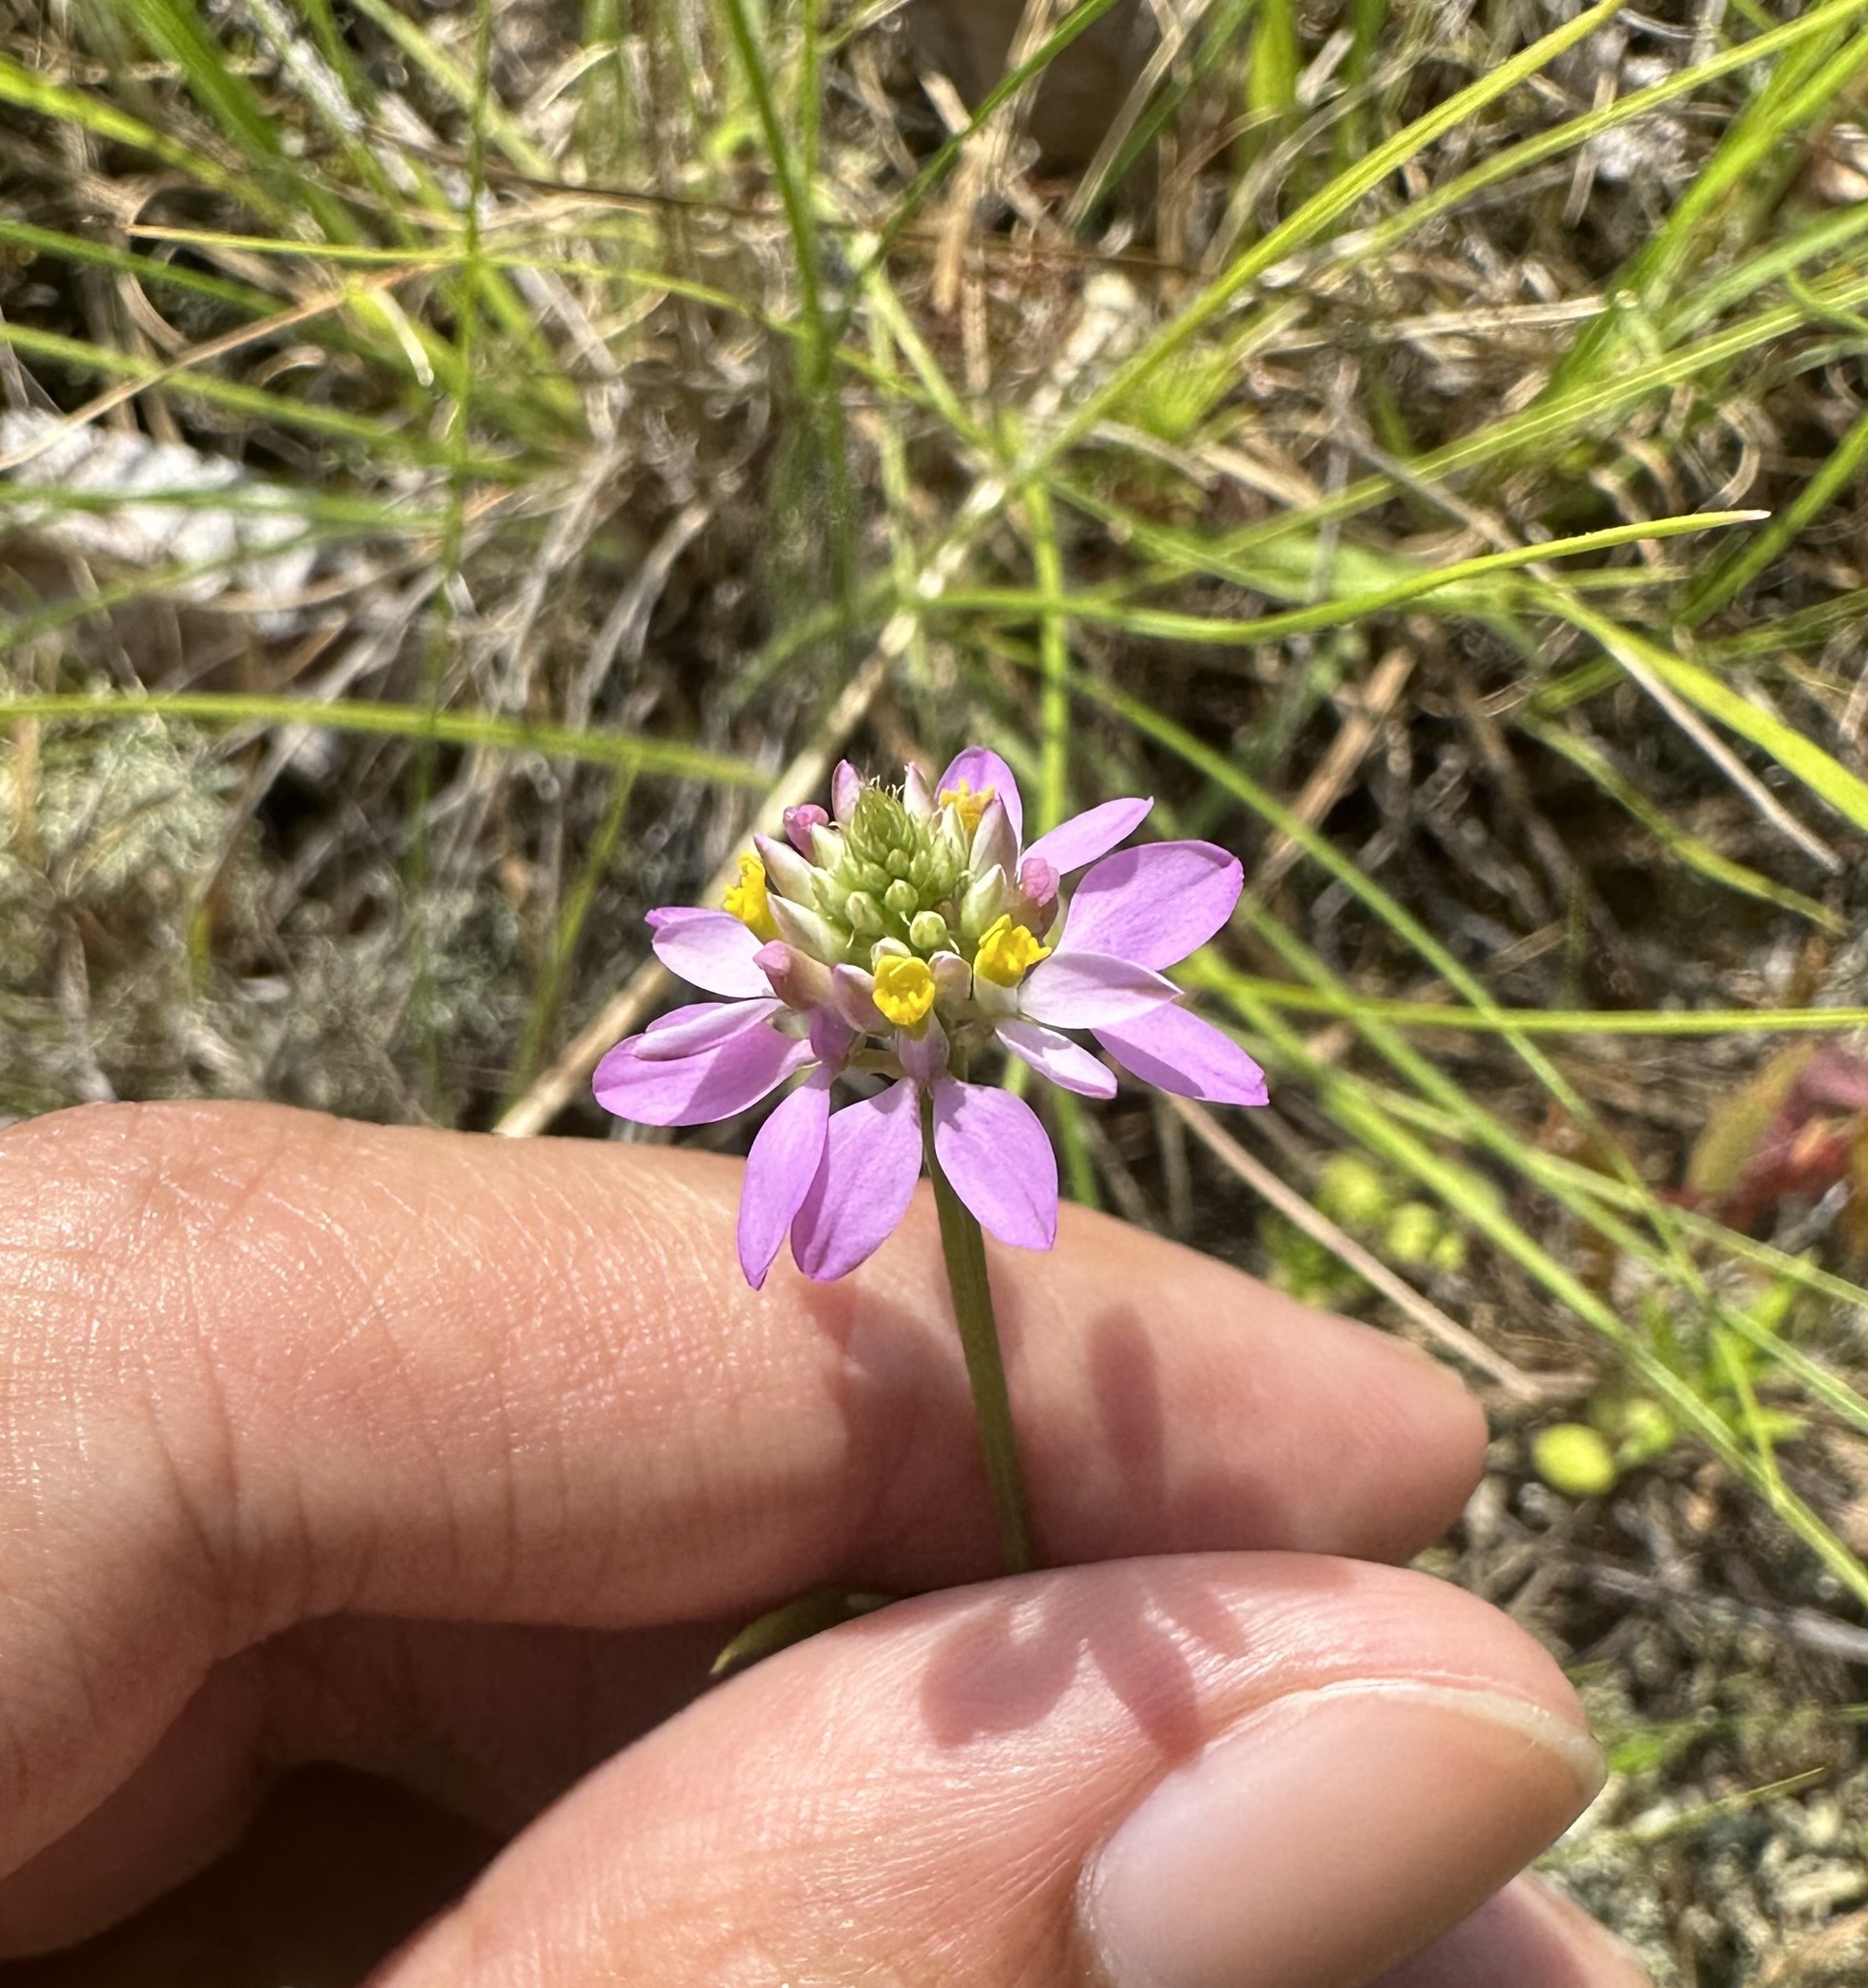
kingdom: Plantae
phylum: Tracheophyta
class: Magnoliopsida
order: Fabales
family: Polygalaceae
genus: Polygala
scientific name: Polygala curtissii
